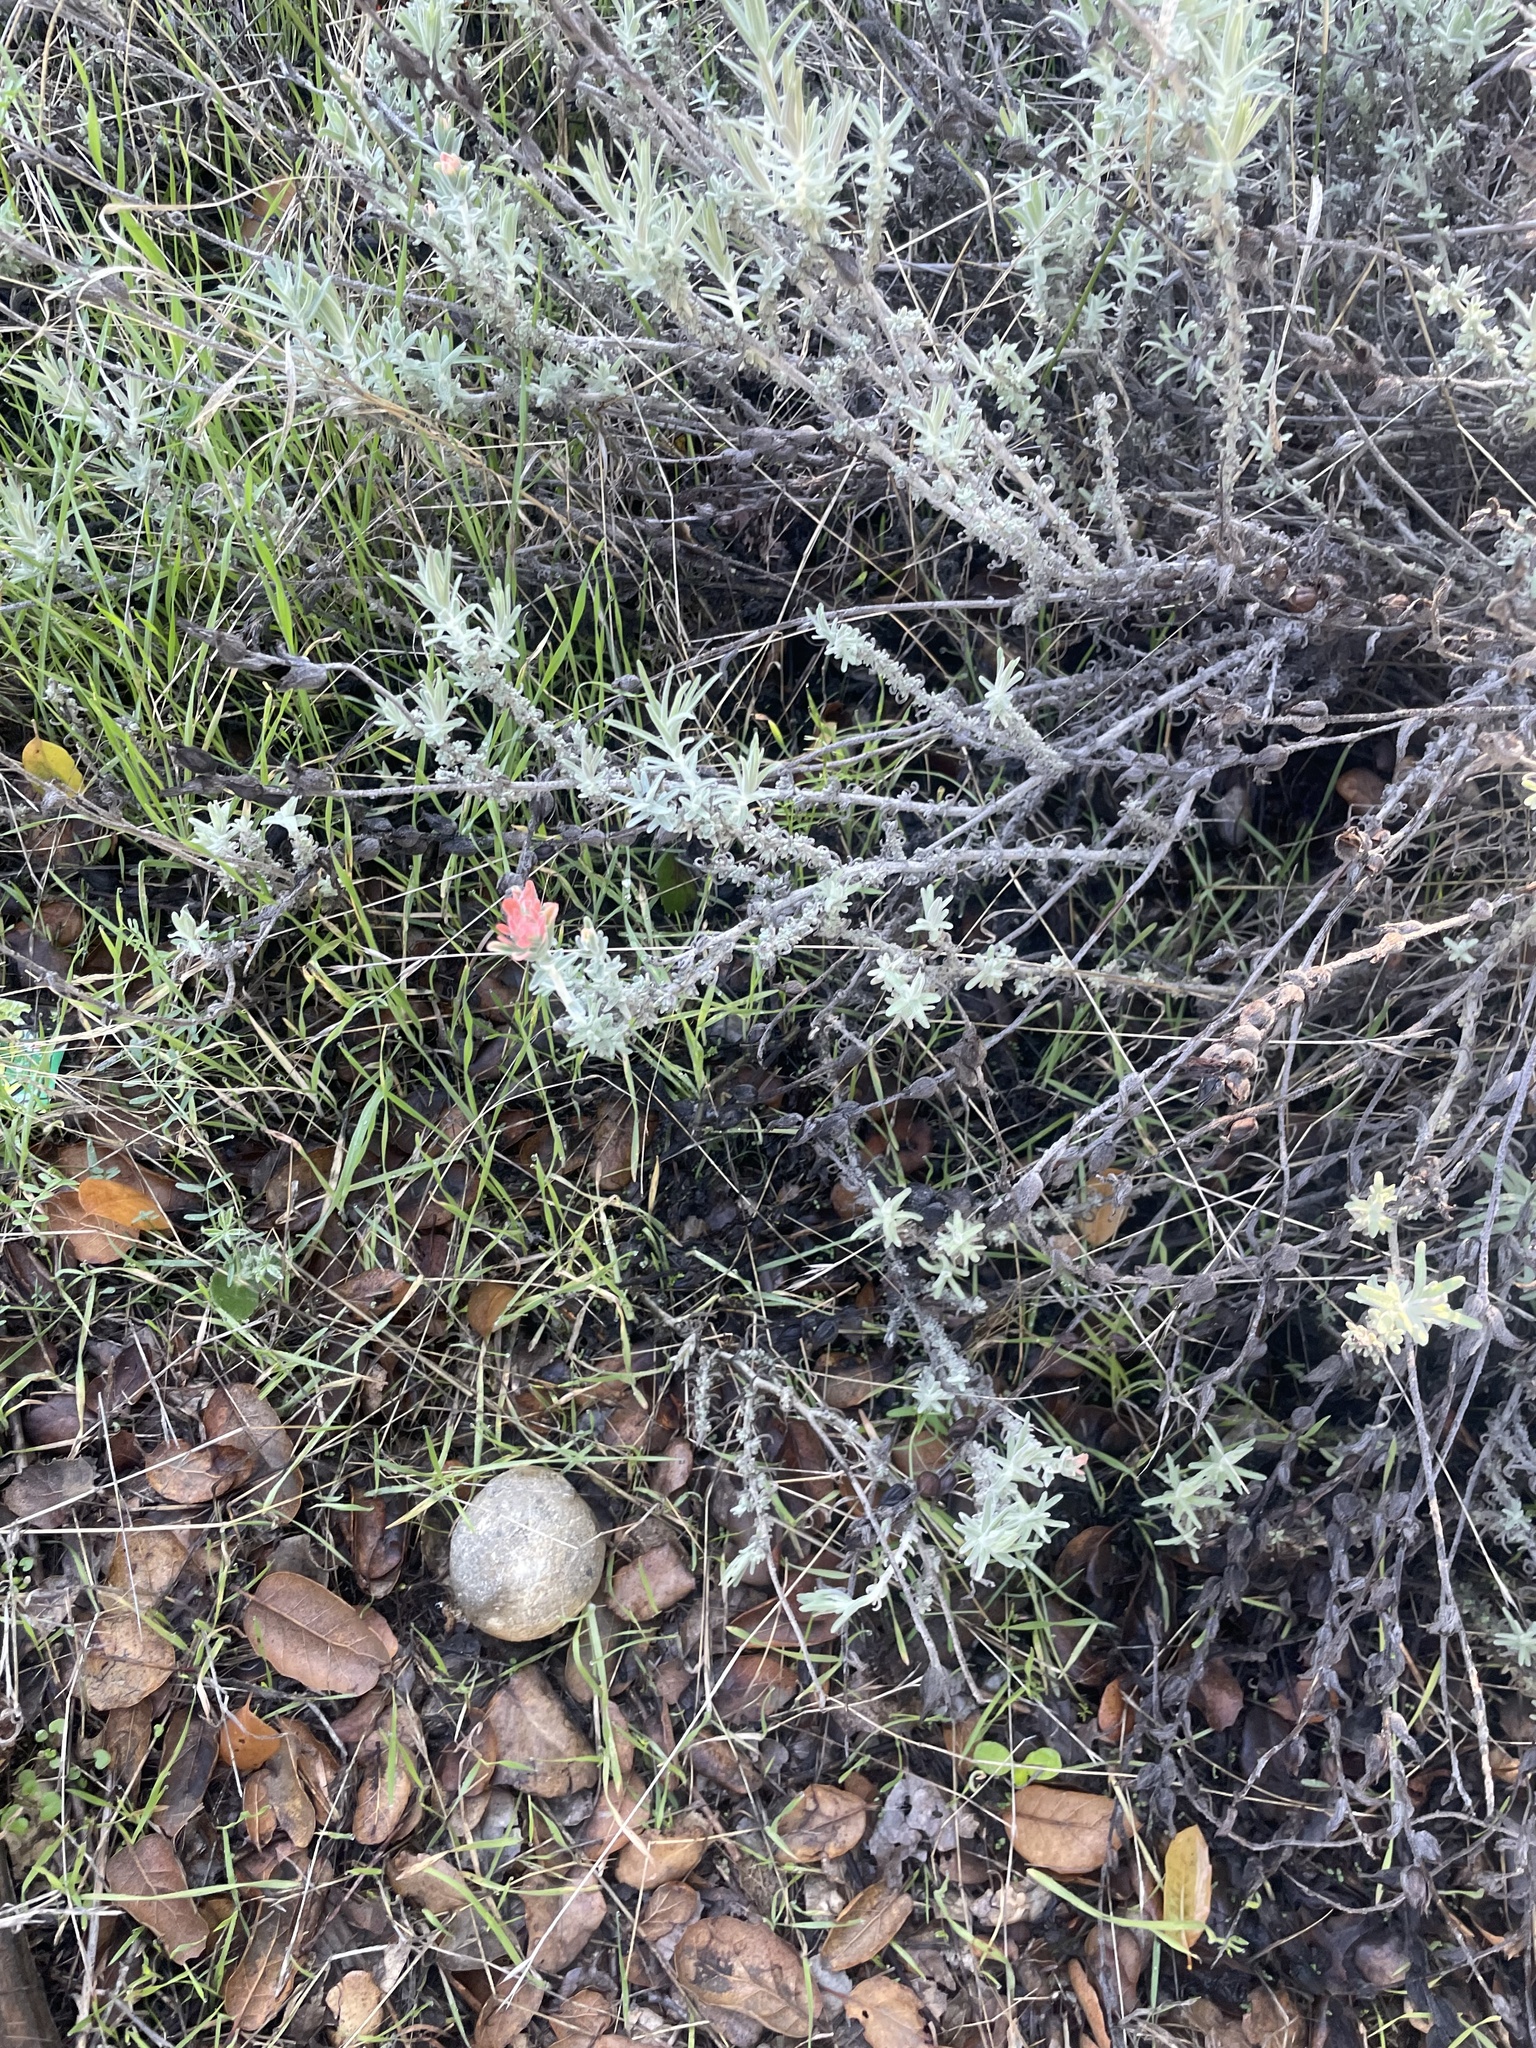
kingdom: Plantae
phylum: Tracheophyta
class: Magnoliopsida
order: Lamiales
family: Orobanchaceae
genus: Castilleja
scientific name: Castilleja foliolosa
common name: Woolly indian paintbrush
